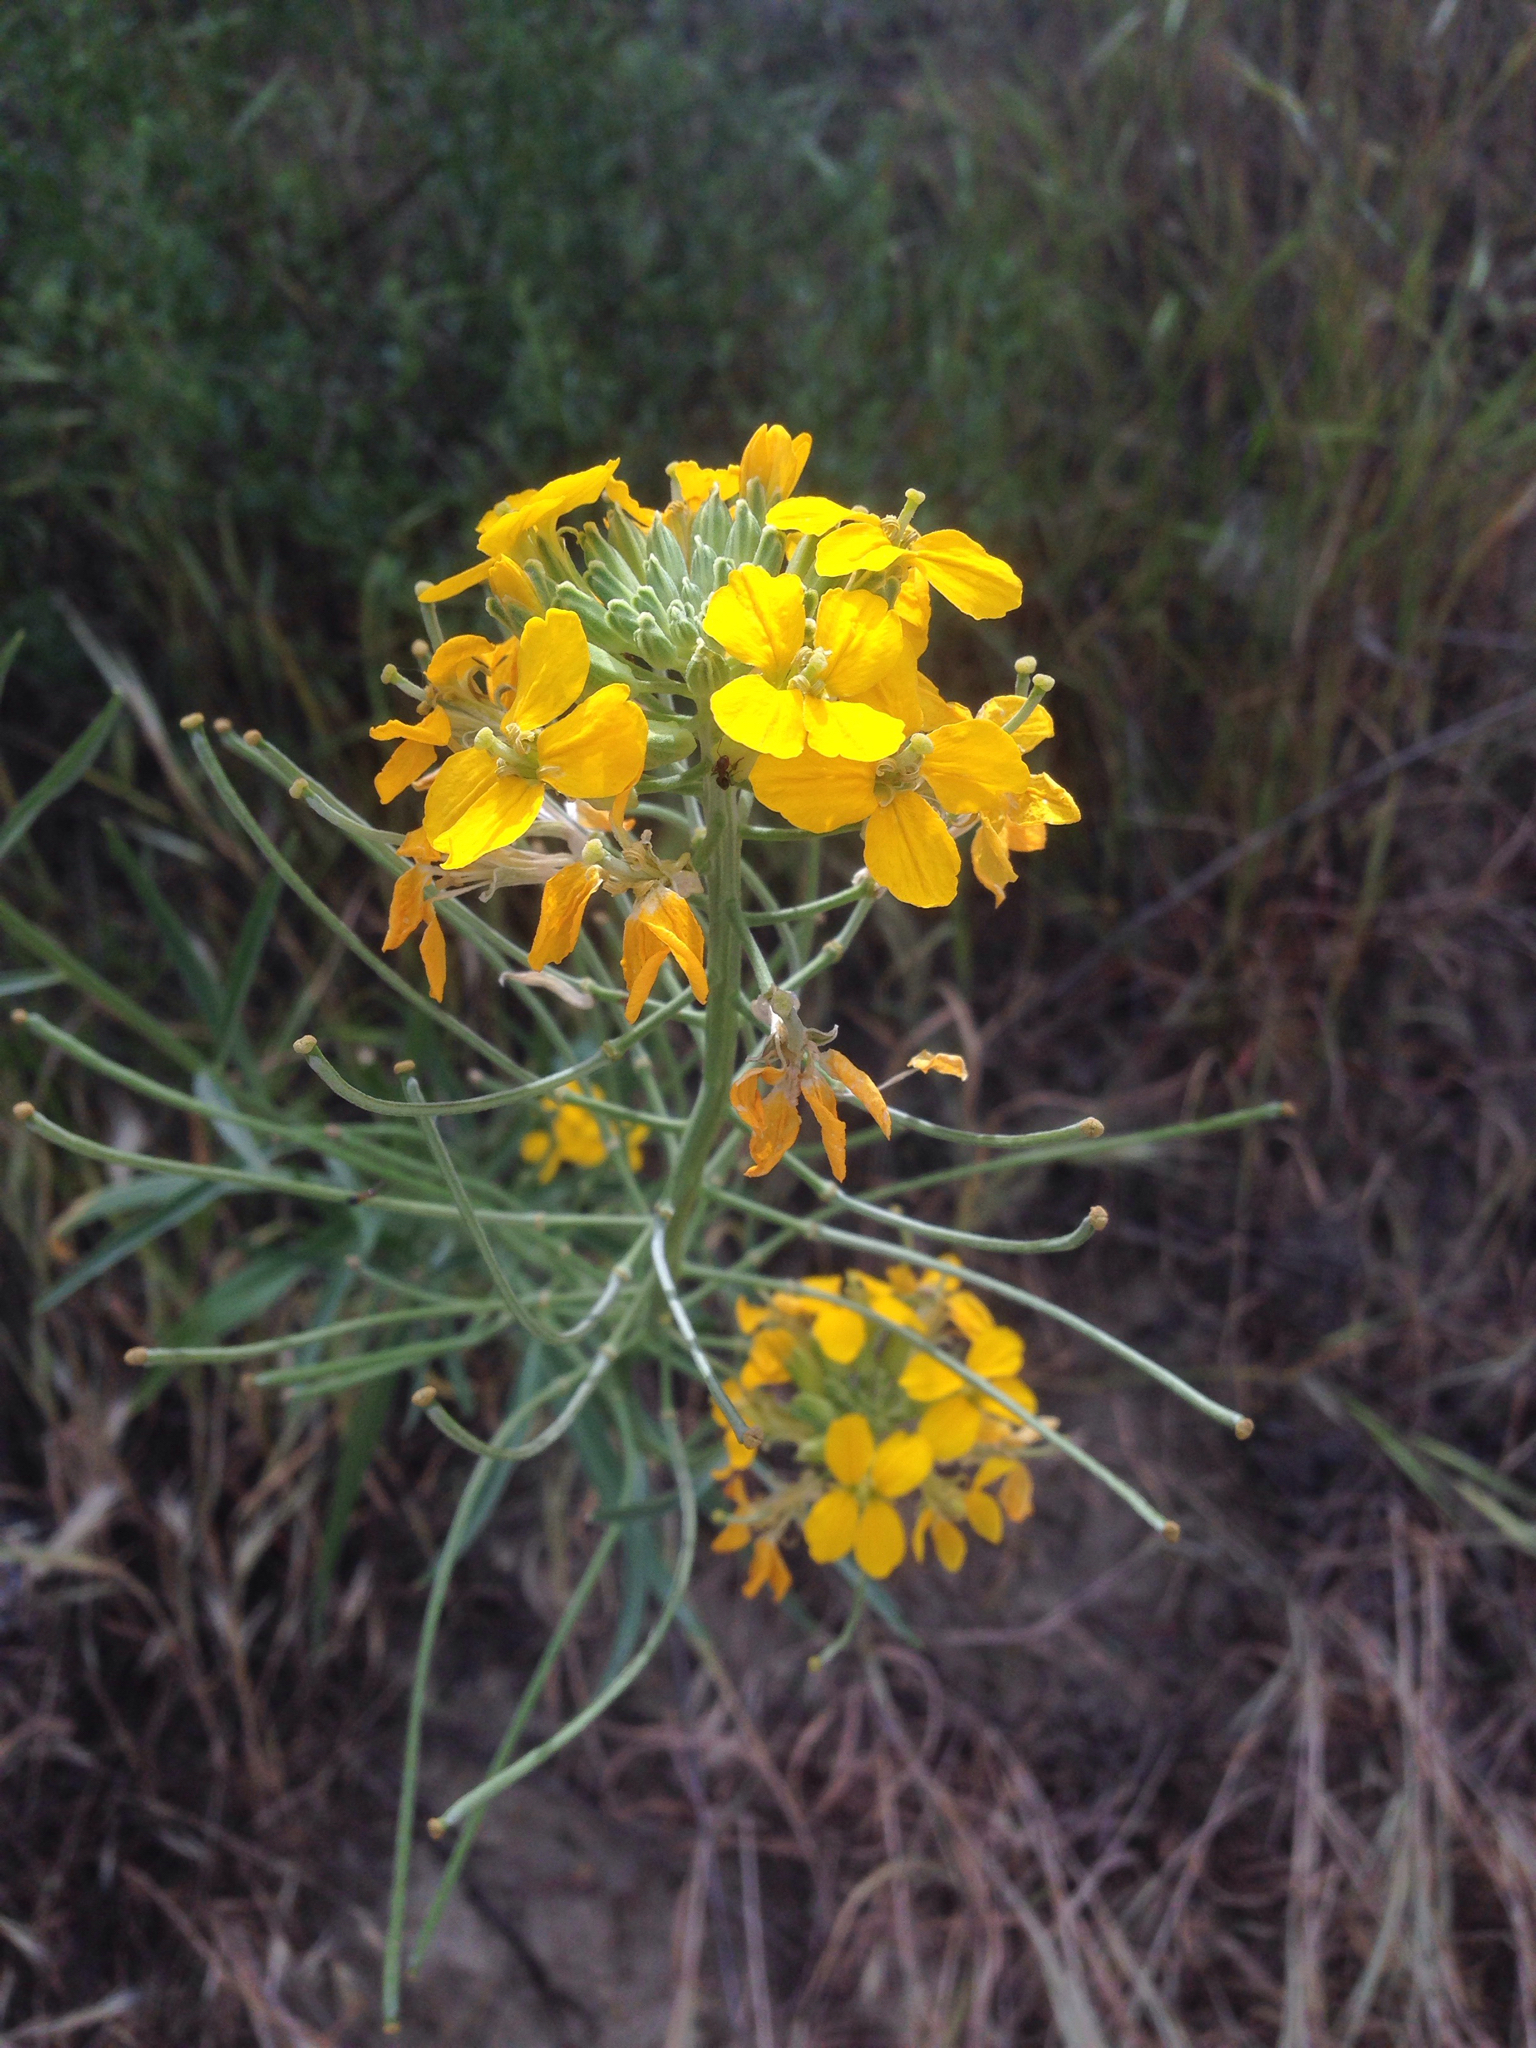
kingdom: Plantae
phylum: Tracheophyta
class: Magnoliopsida
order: Brassicales
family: Brassicaceae
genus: Erysimum
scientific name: Erysimum capitatum
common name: Western wallflower
